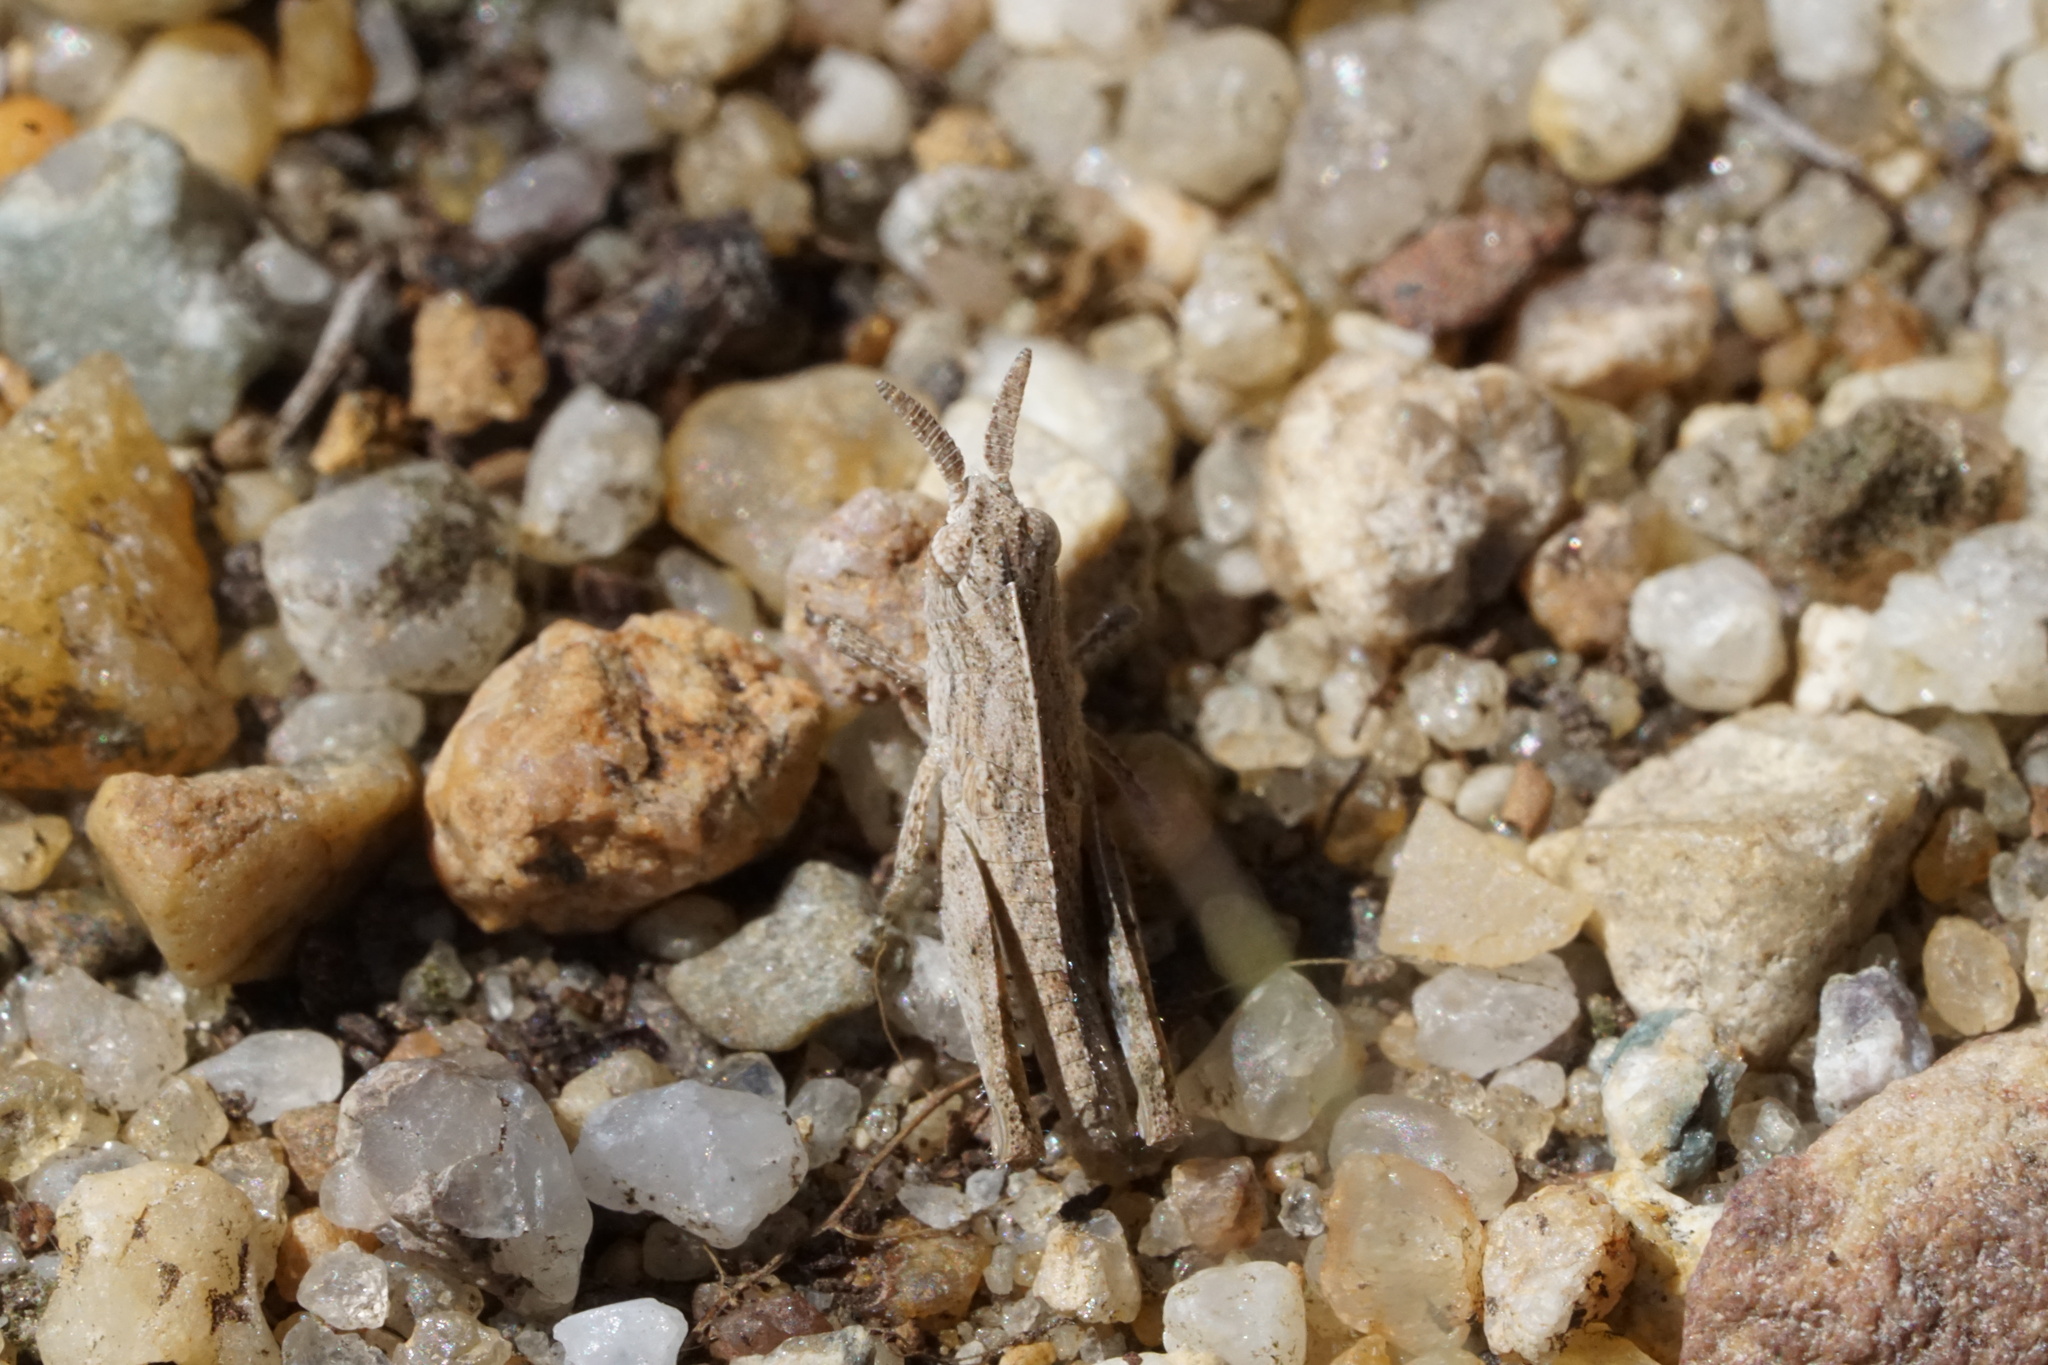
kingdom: Animalia
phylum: Arthropoda
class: Insecta
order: Orthoptera
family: Acrididae
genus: Chortophaga
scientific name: Chortophaga viridifasciata
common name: Green-striped grasshopper
